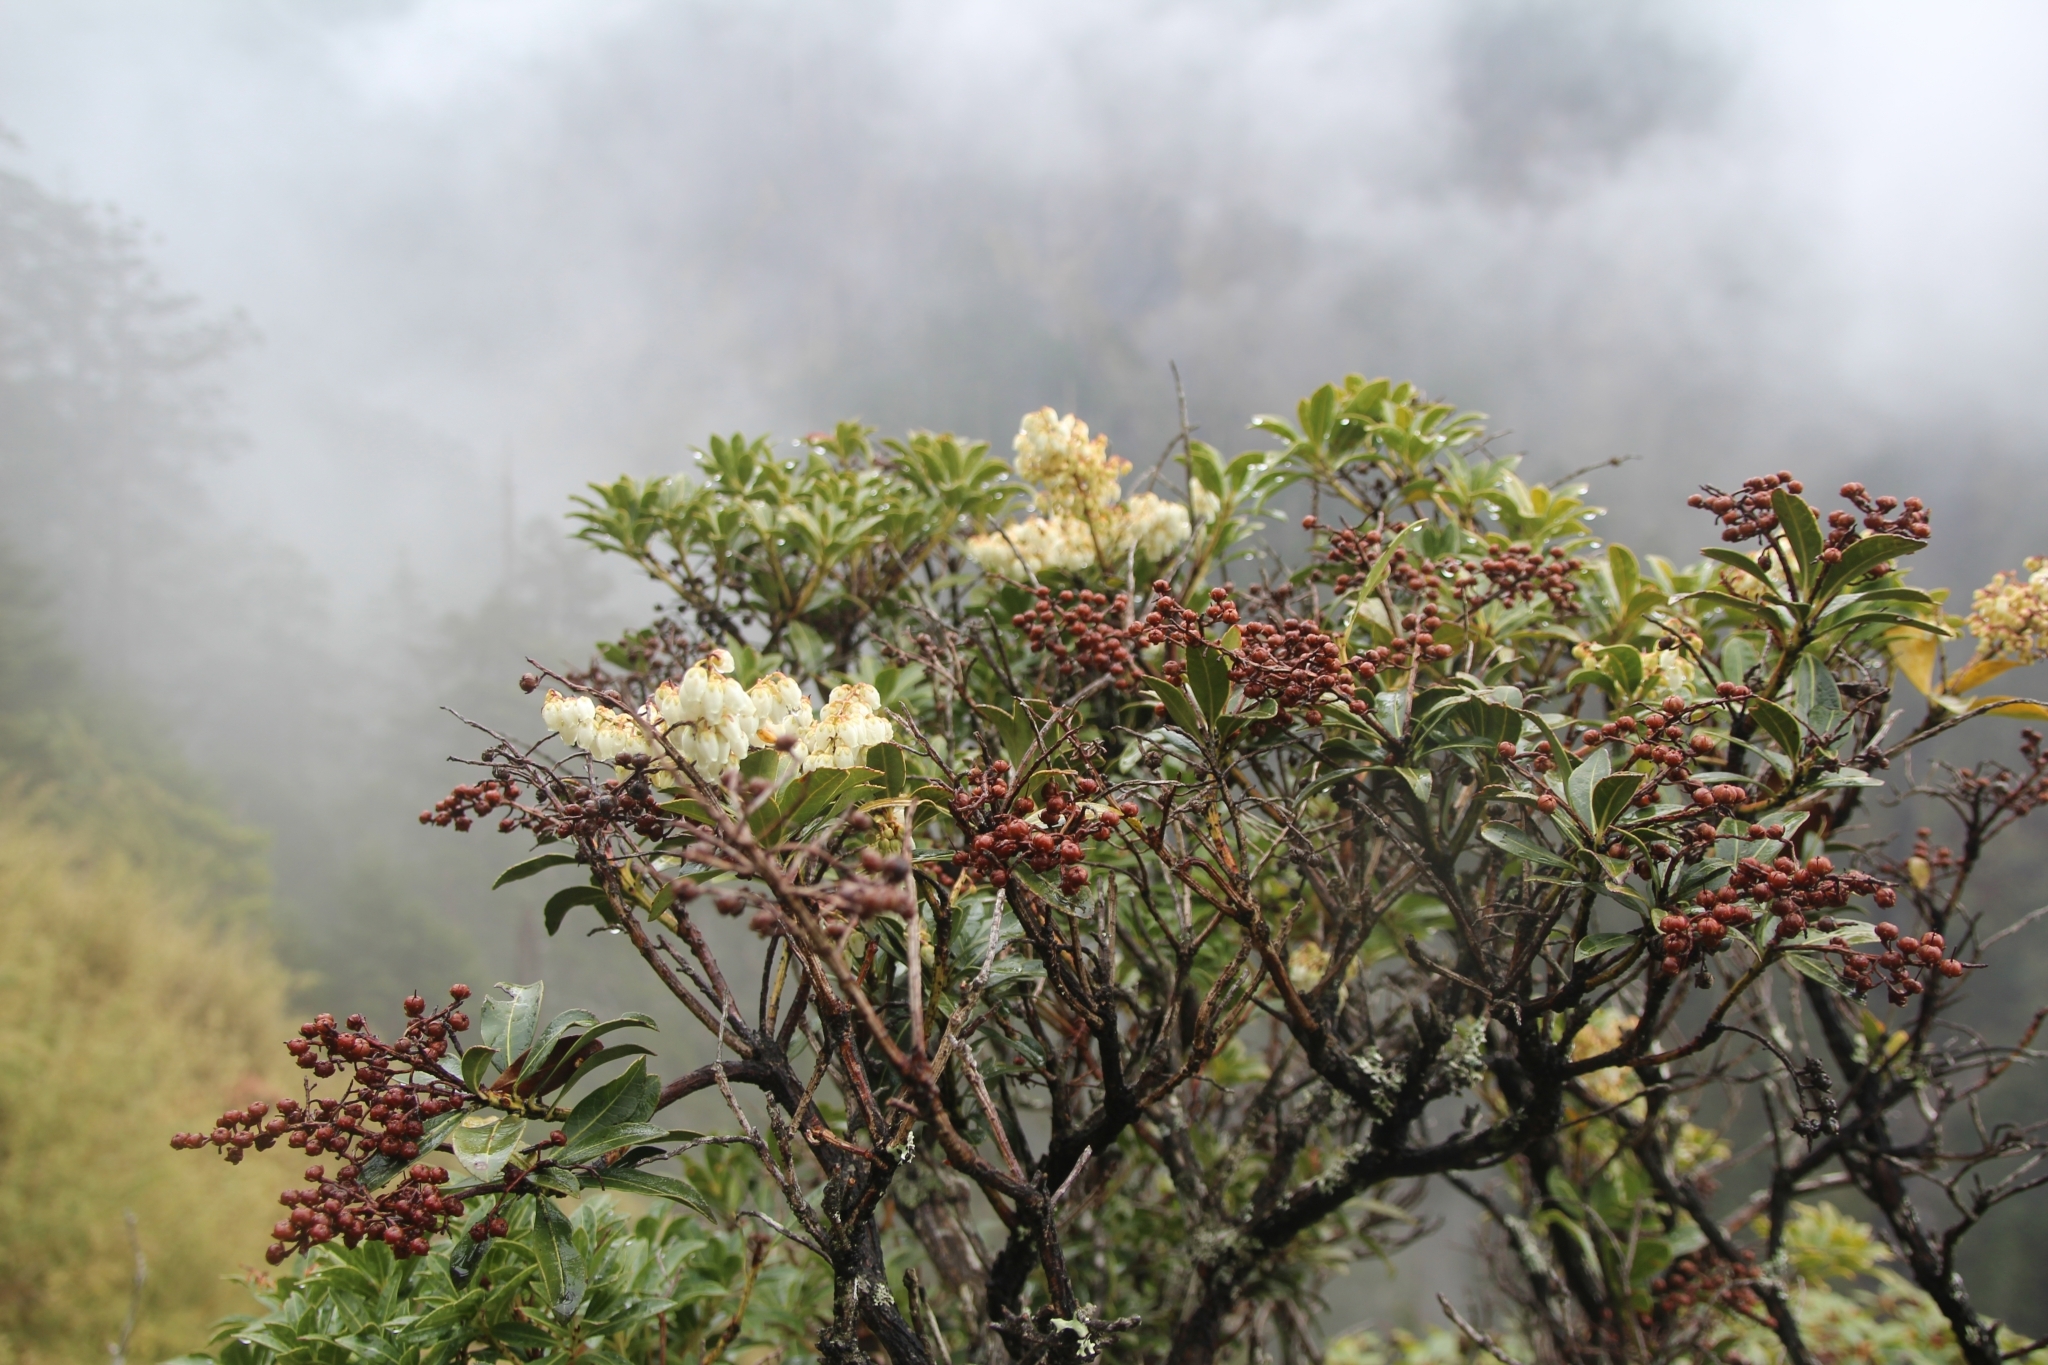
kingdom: Plantae
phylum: Tracheophyta
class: Magnoliopsida
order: Ericales
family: Ericaceae
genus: Pieris
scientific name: Pieris japonica
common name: Japanese pieris
